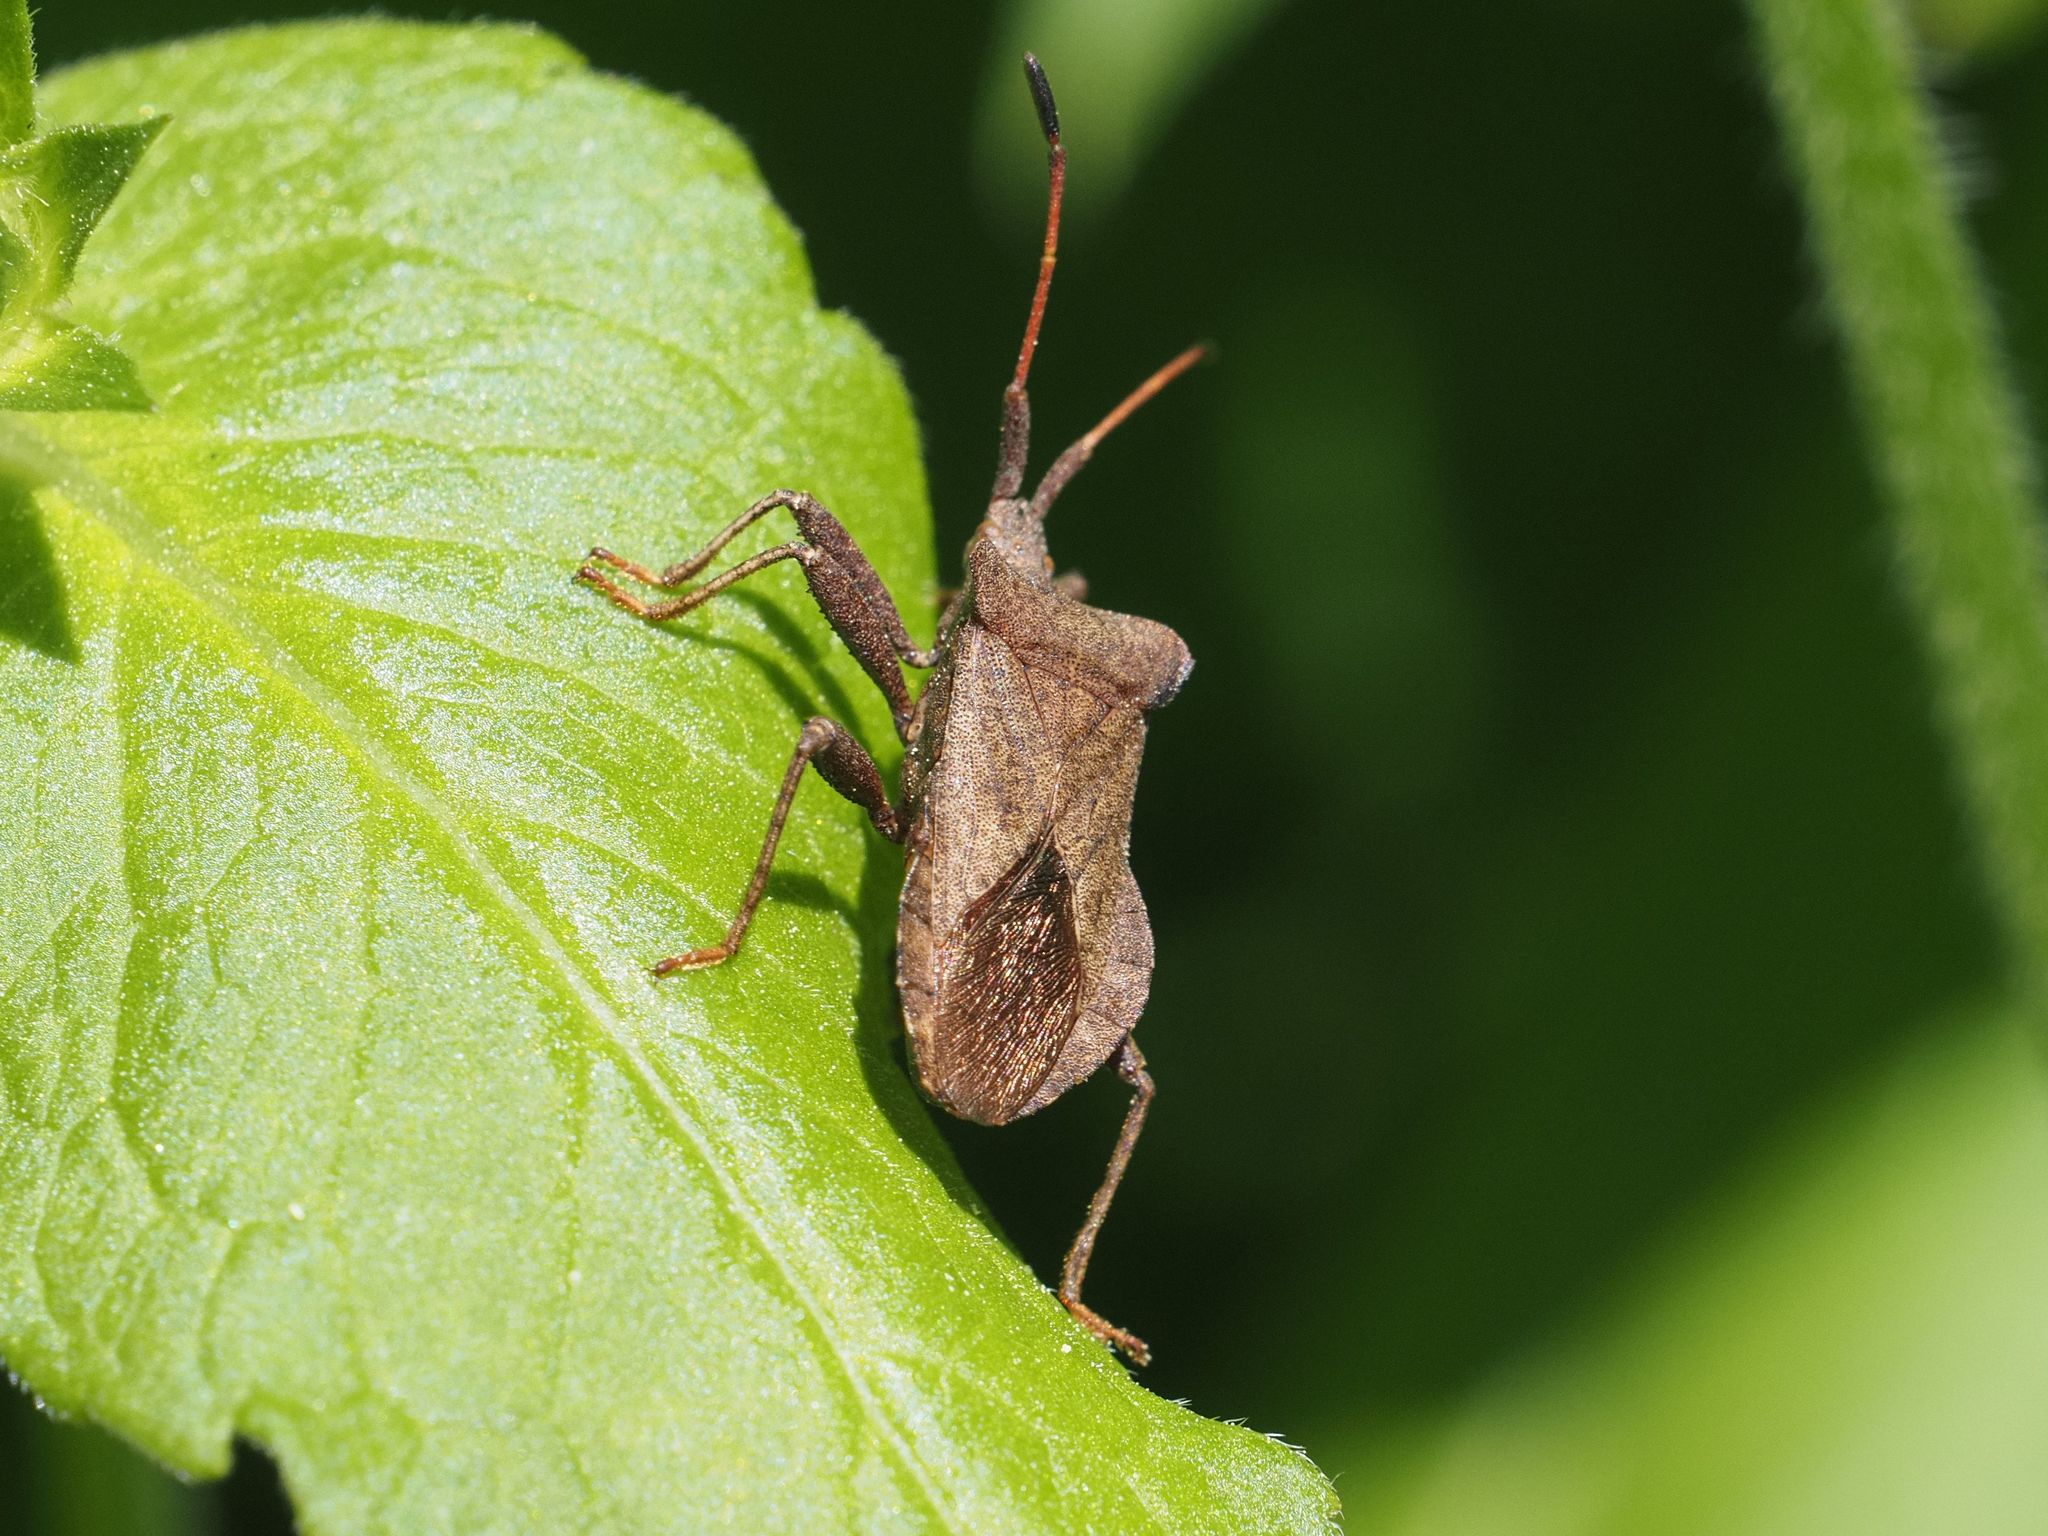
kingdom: Animalia
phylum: Arthropoda
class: Insecta
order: Hemiptera
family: Coreidae
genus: Coreus
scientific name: Coreus marginatus
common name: Dock bug
